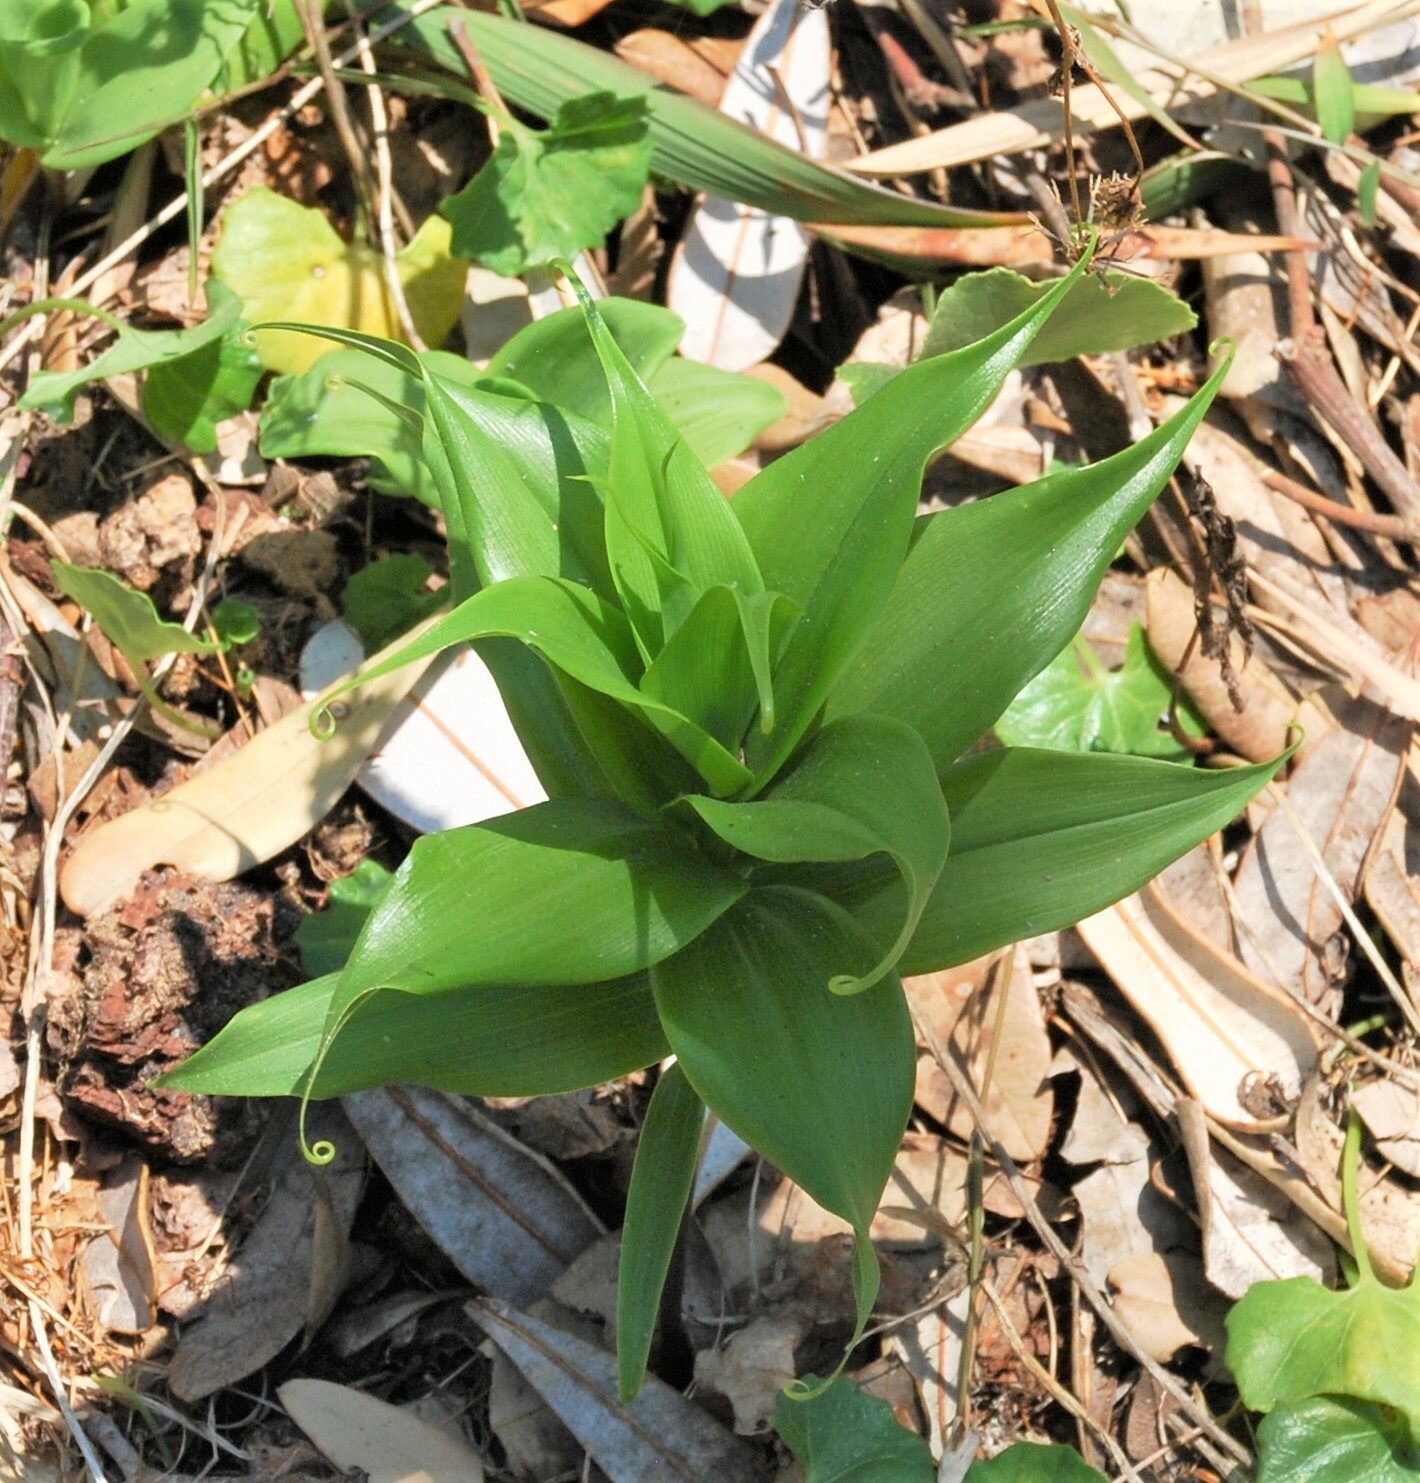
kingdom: Plantae
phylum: Tracheophyta
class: Liliopsida
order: Liliales
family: Colchicaceae
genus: Gloriosa
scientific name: Gloriosa superba
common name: Flame lily
